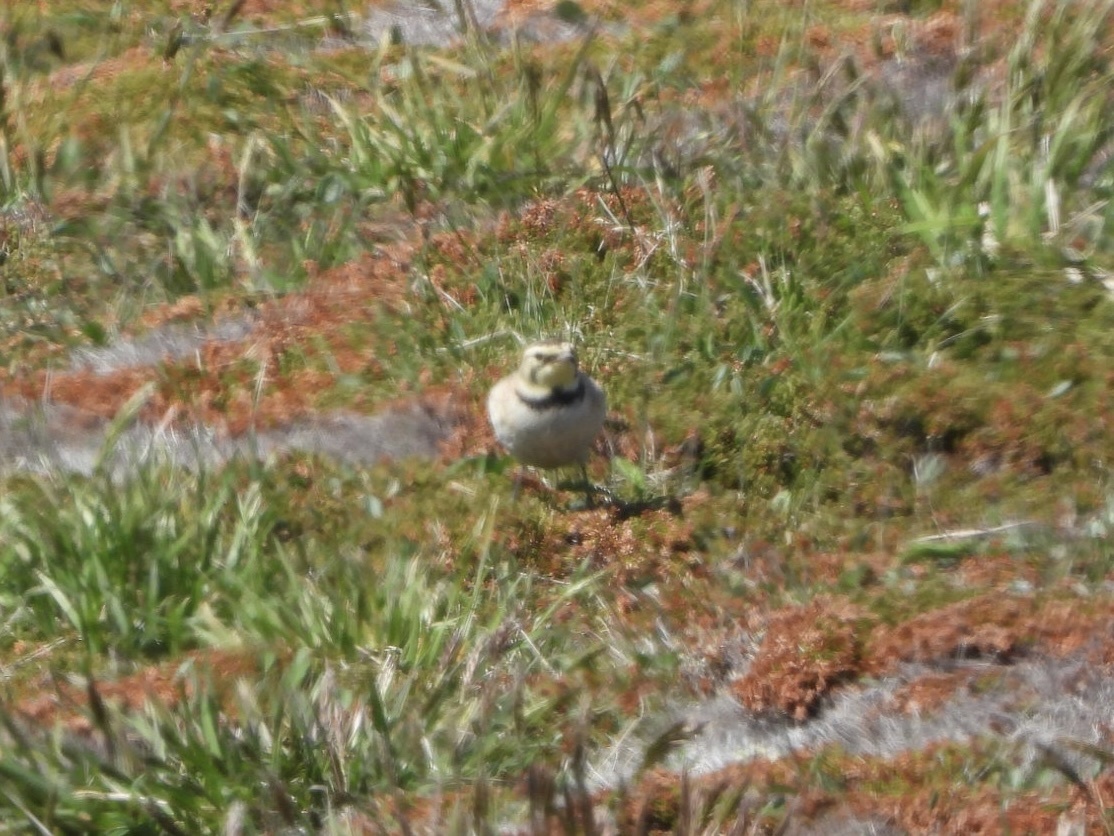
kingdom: Animalia
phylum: Chordata
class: Aves
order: Passeriformes
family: Alaudidae
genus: Eremophila
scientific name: Eremophila alpestris
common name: Horned lark
